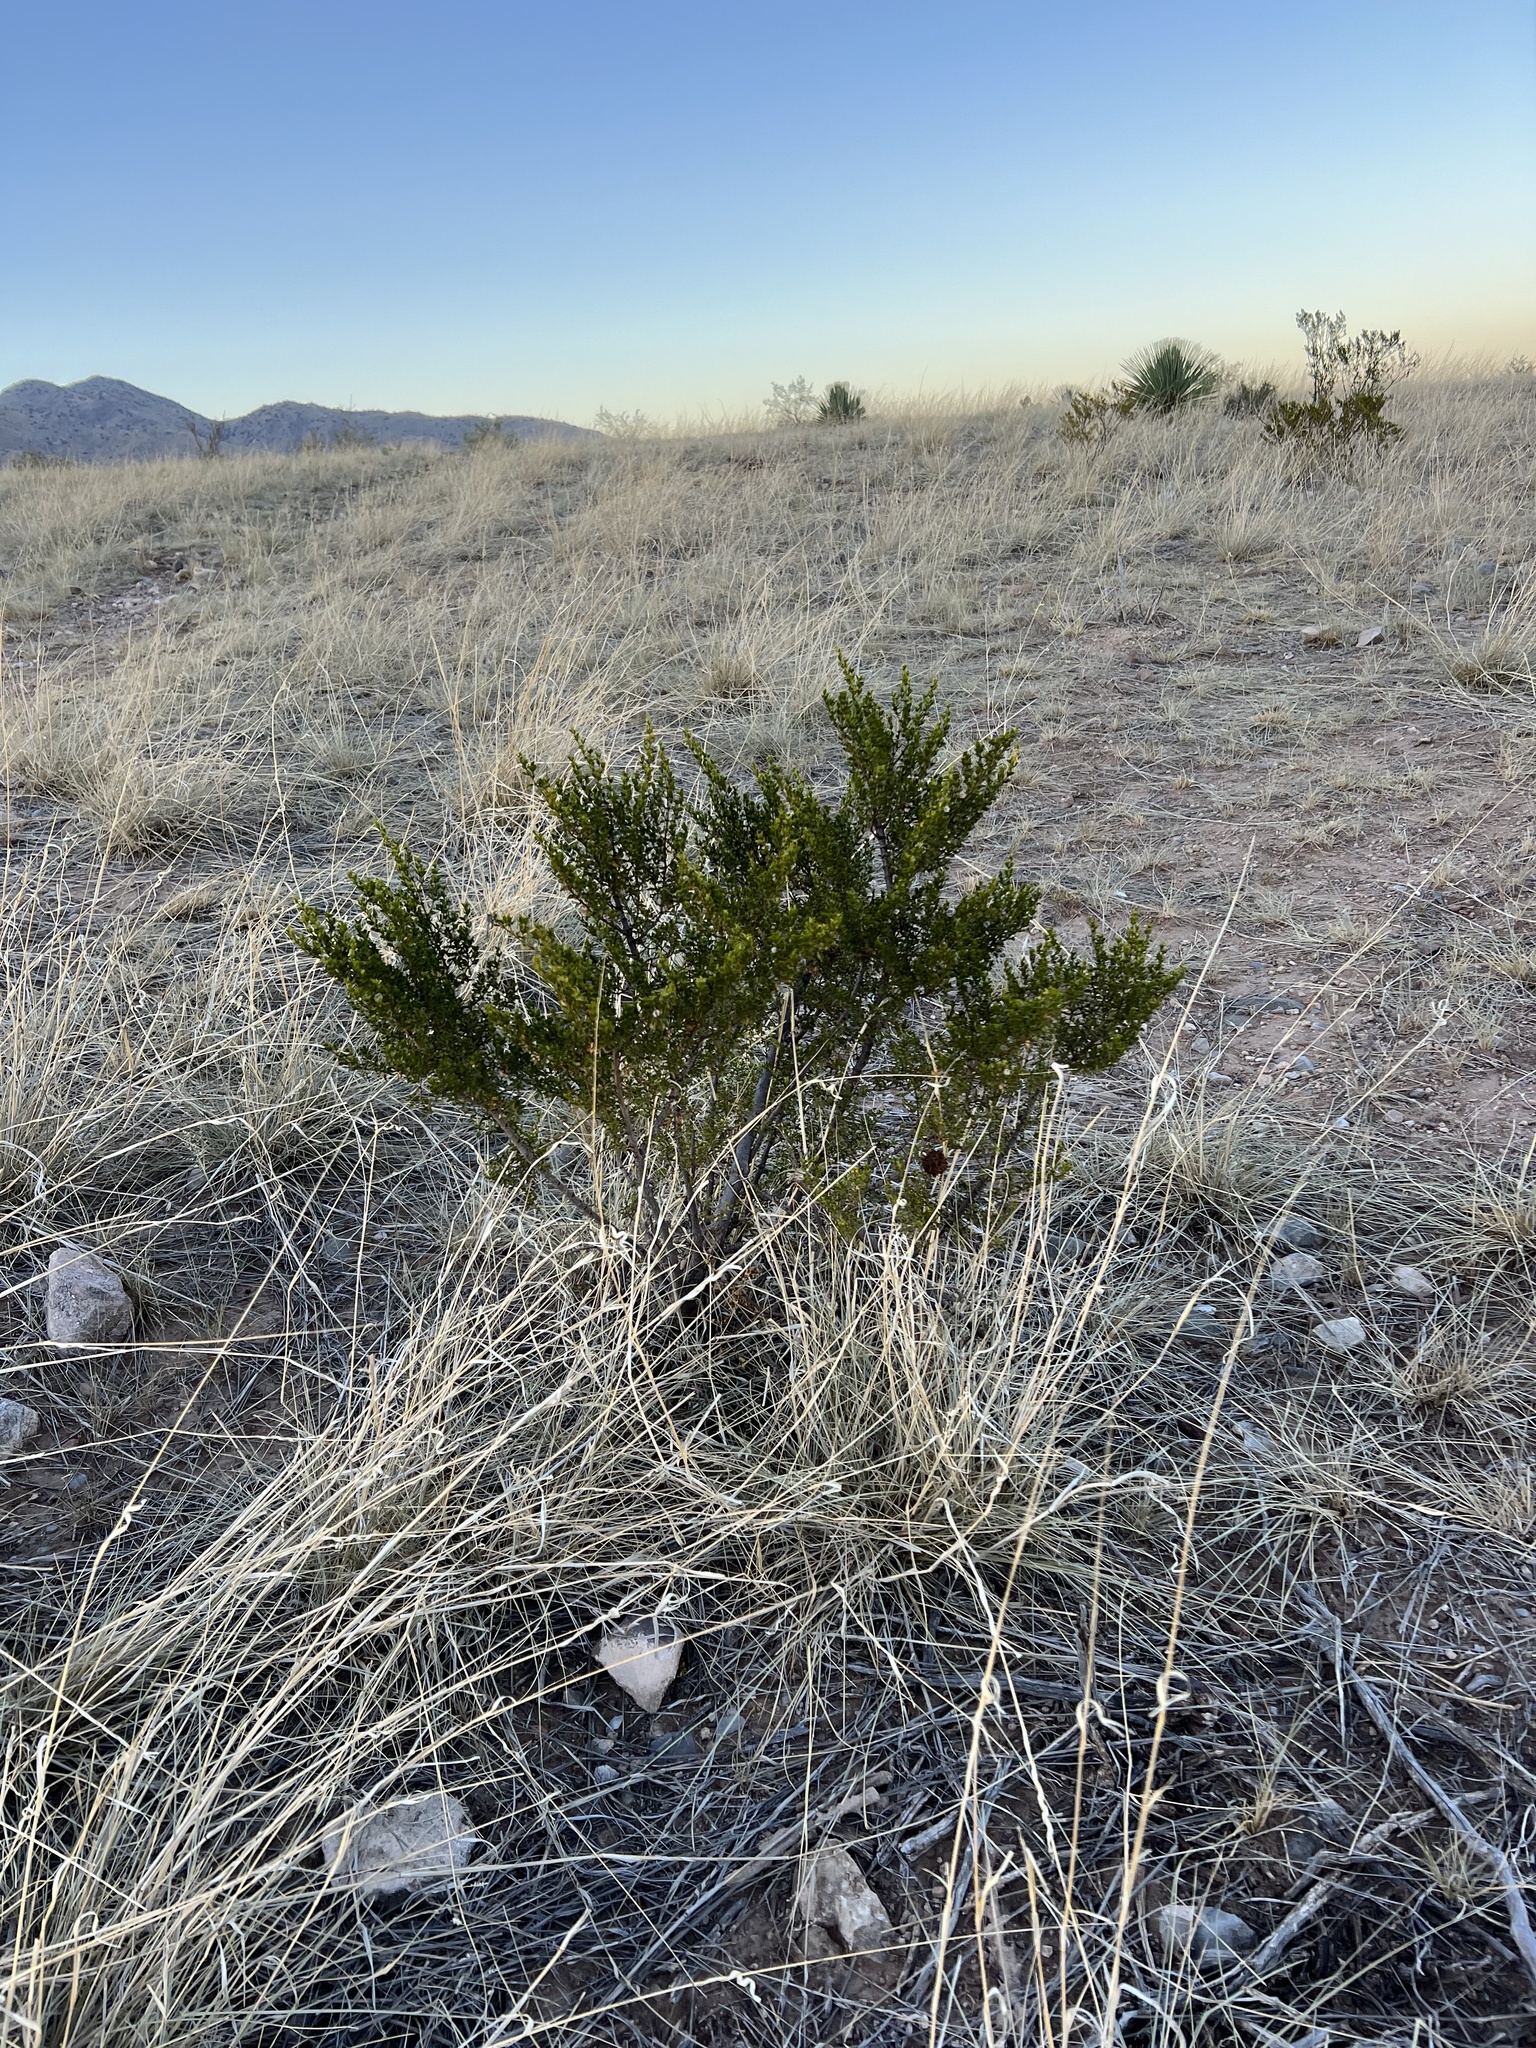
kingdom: Plantae
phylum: Tracheophyta
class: Magnoliopsida
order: Zygophyllales
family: Zygophyllaceae
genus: Larrea
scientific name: Larrea tridentata
